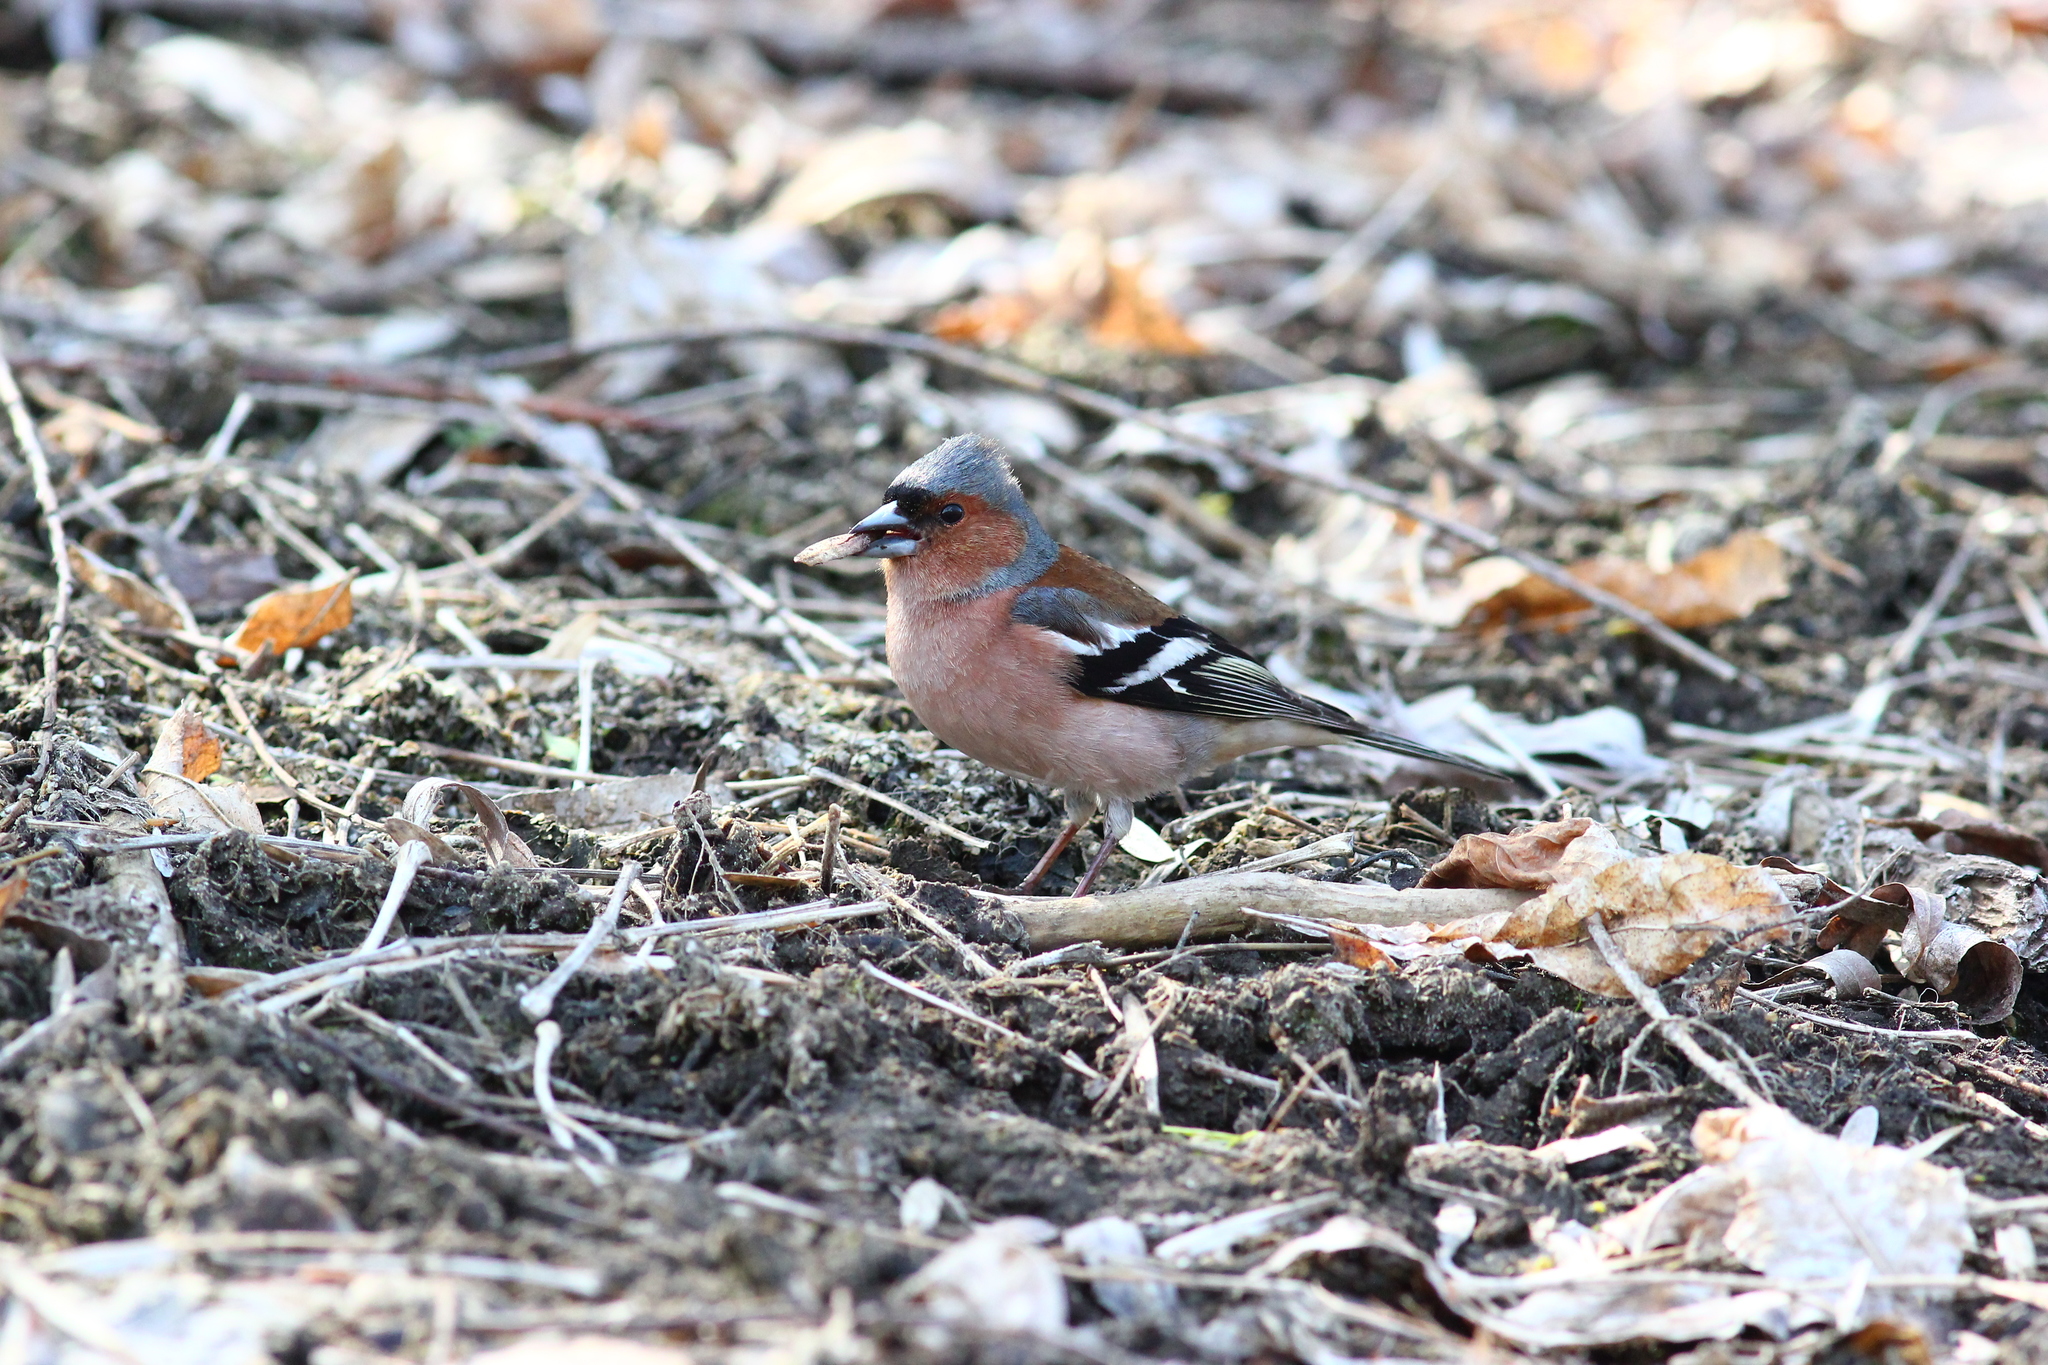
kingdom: Animalia
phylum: Chordata
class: Aves
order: Passeriformes
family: Fringillidae
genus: Fringilla
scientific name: Fringilla coelebs
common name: Common chaffinch
